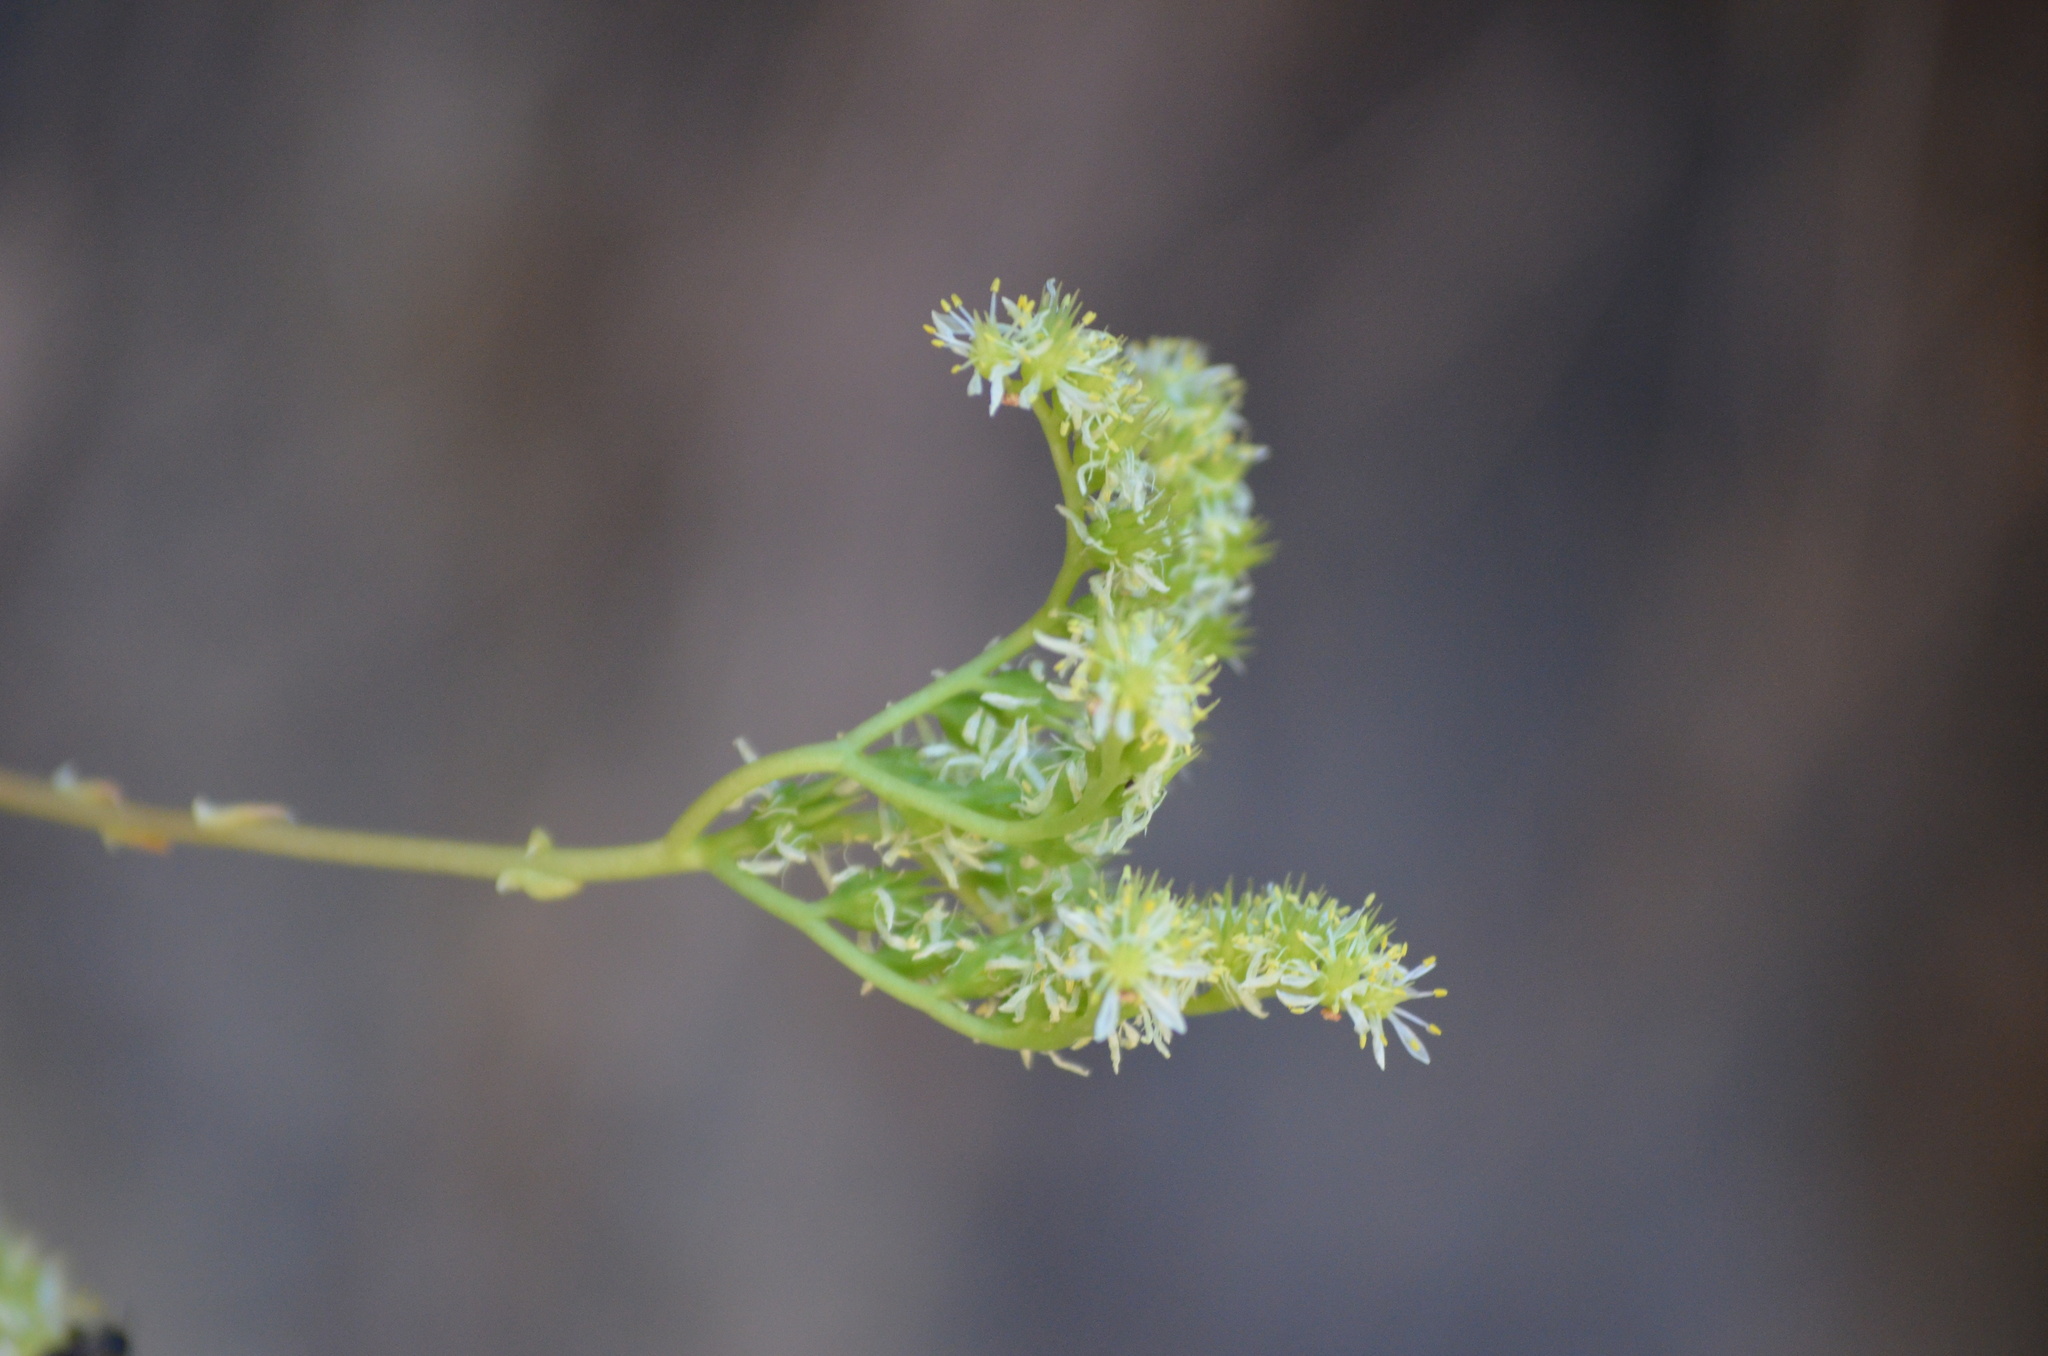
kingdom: Plantae
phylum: Tracheophyta
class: Magnoliopsida
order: Saxifragales
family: Crassulaceae
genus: Petrosedum
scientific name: Petrosedum sediforme
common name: Pale stonecrop
